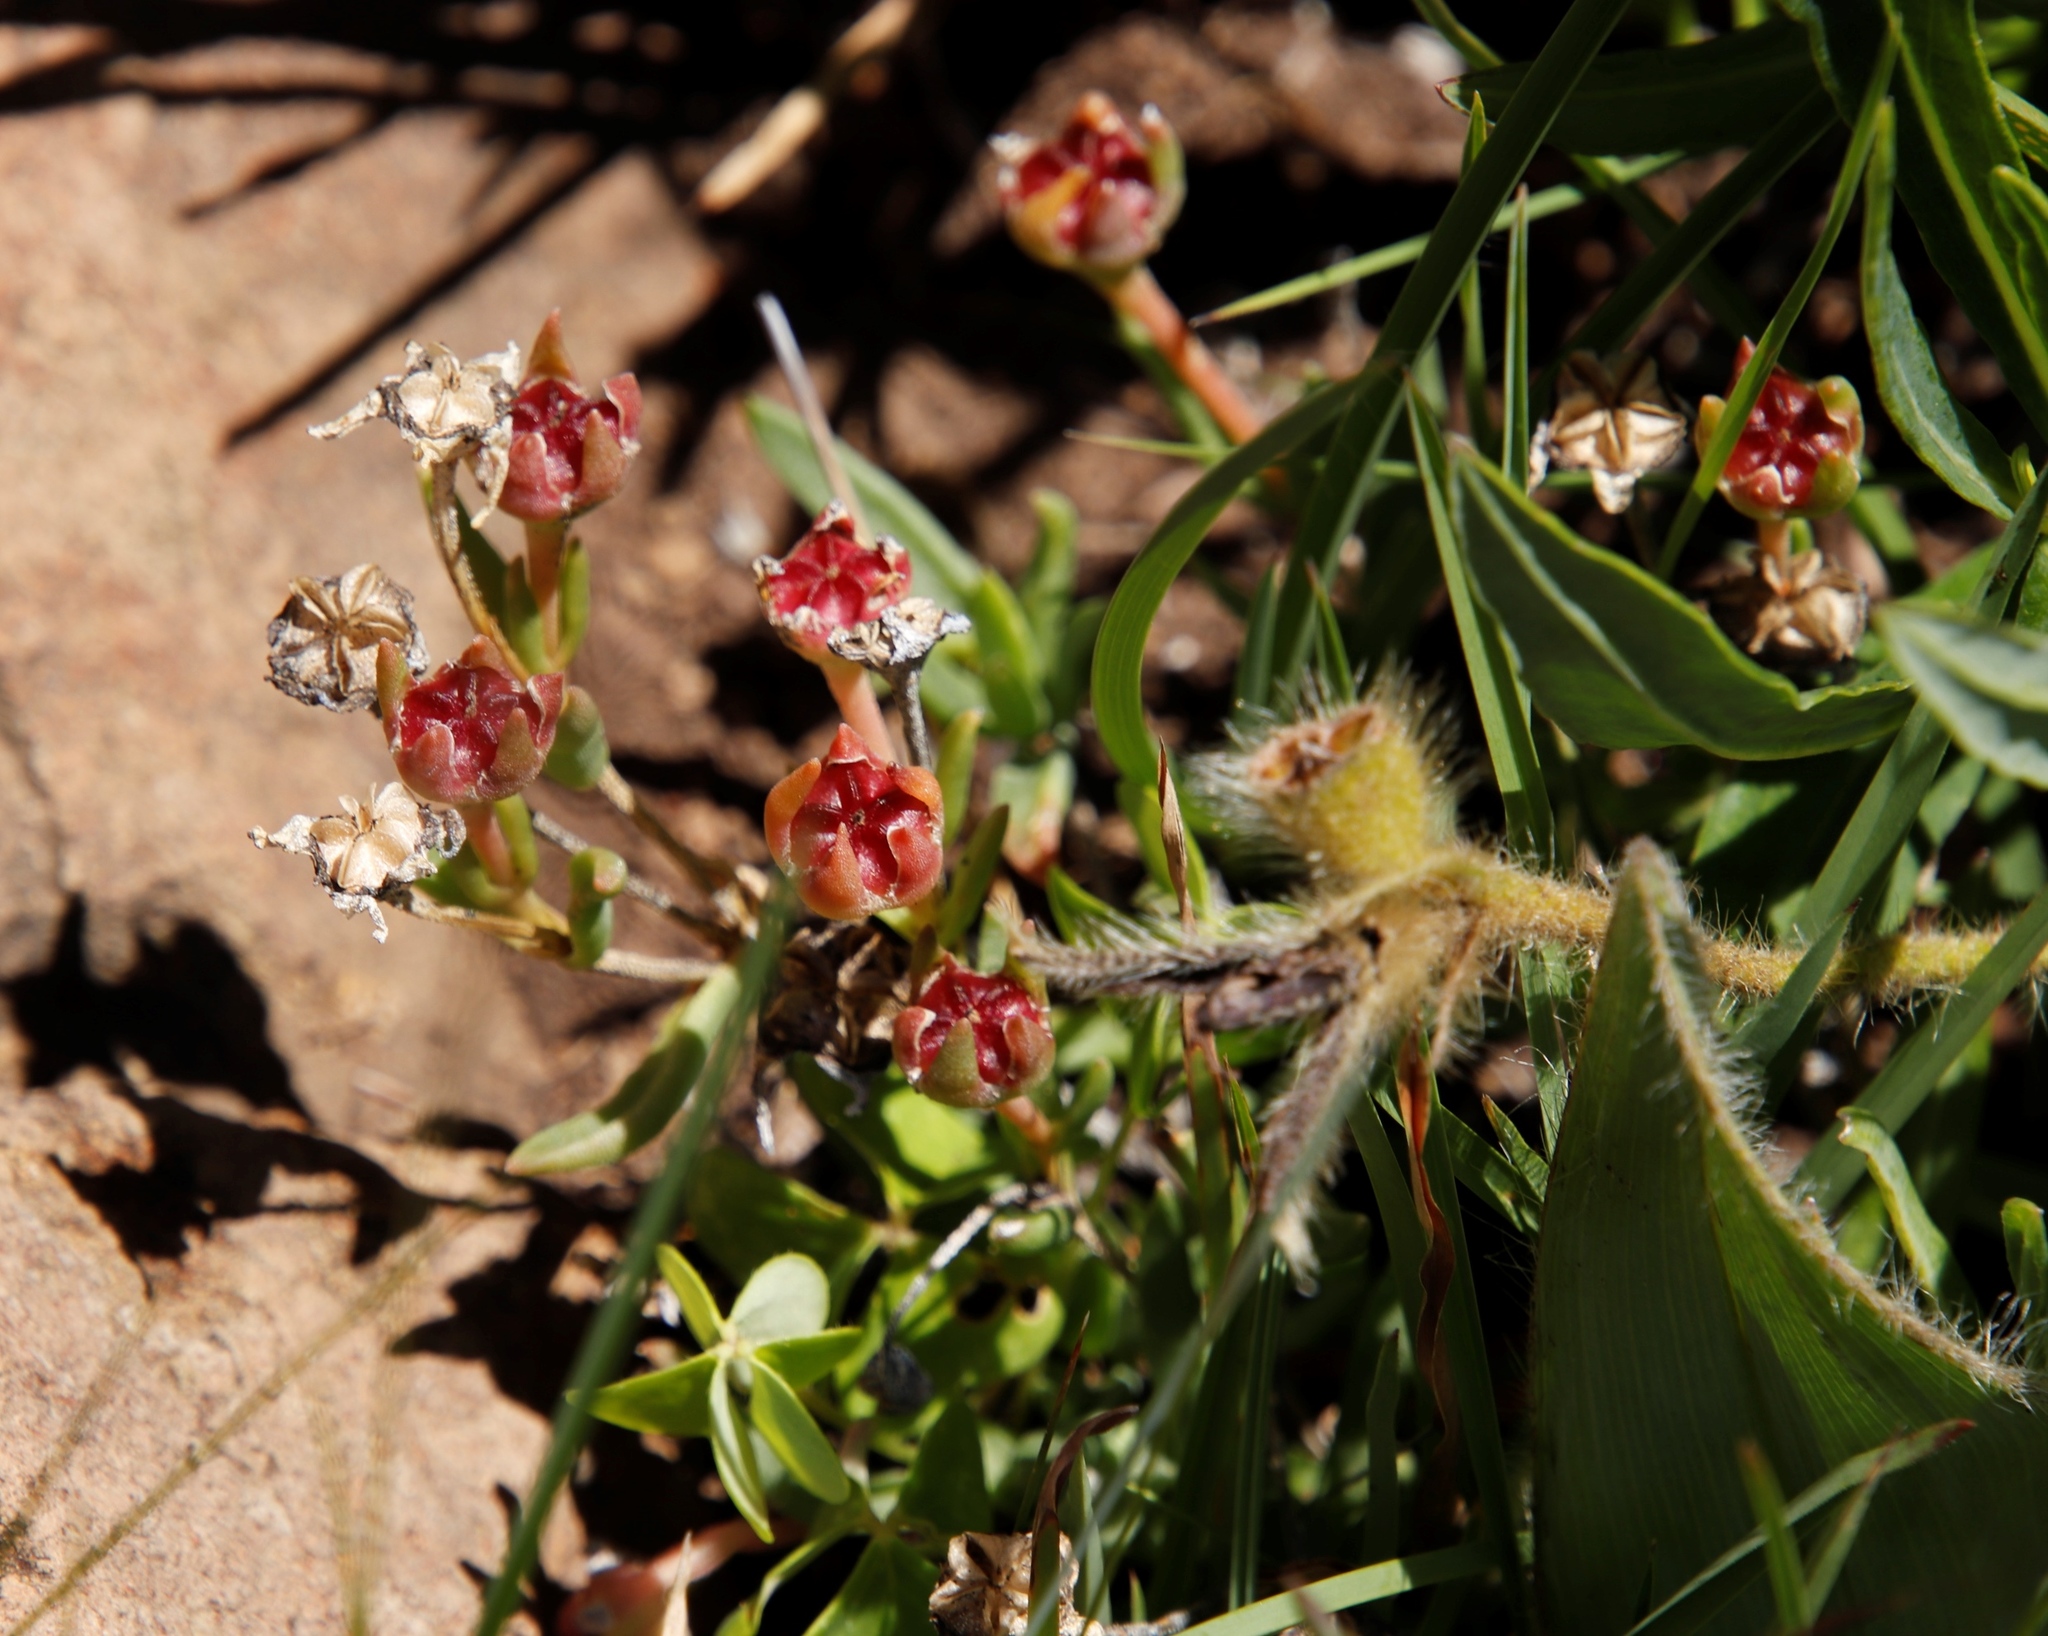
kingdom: Plantae
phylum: Tracheophyta
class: Magnoliopsida
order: Caryophyllales
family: Aizoaceae
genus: Delosperma
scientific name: Delosperma brevisepalum
